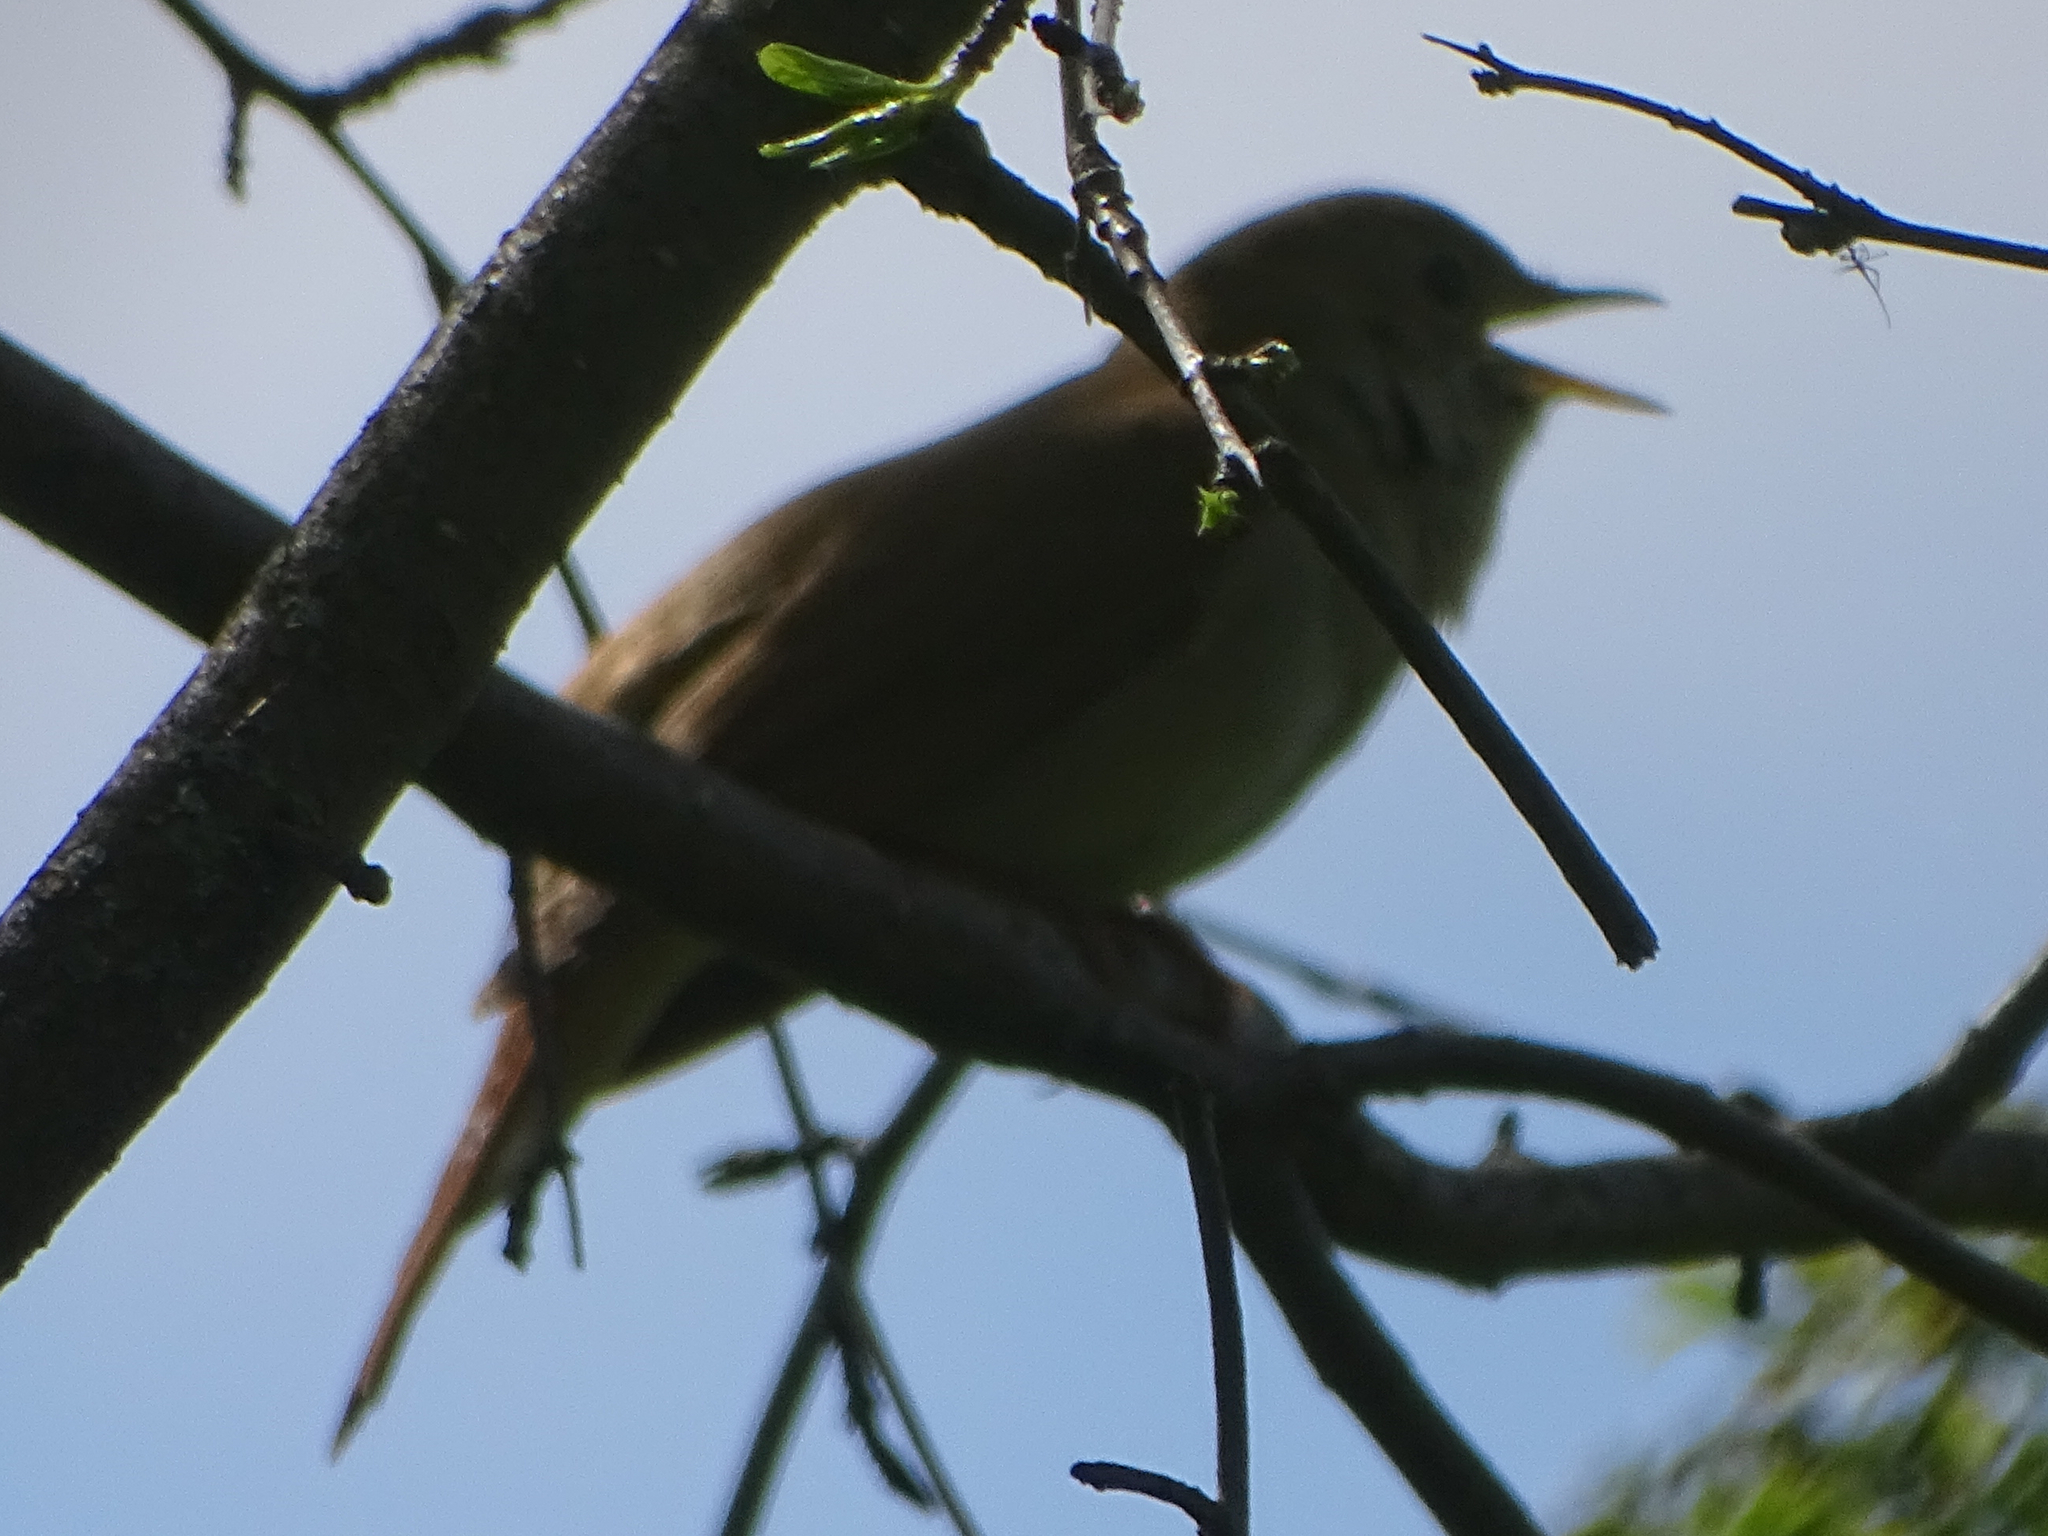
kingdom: Animalia
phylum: Chordata
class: Aves
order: Passeriformes
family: Muscicapidae
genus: Luscinia
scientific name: Luscinia megarhynchos
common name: Common nightingale
